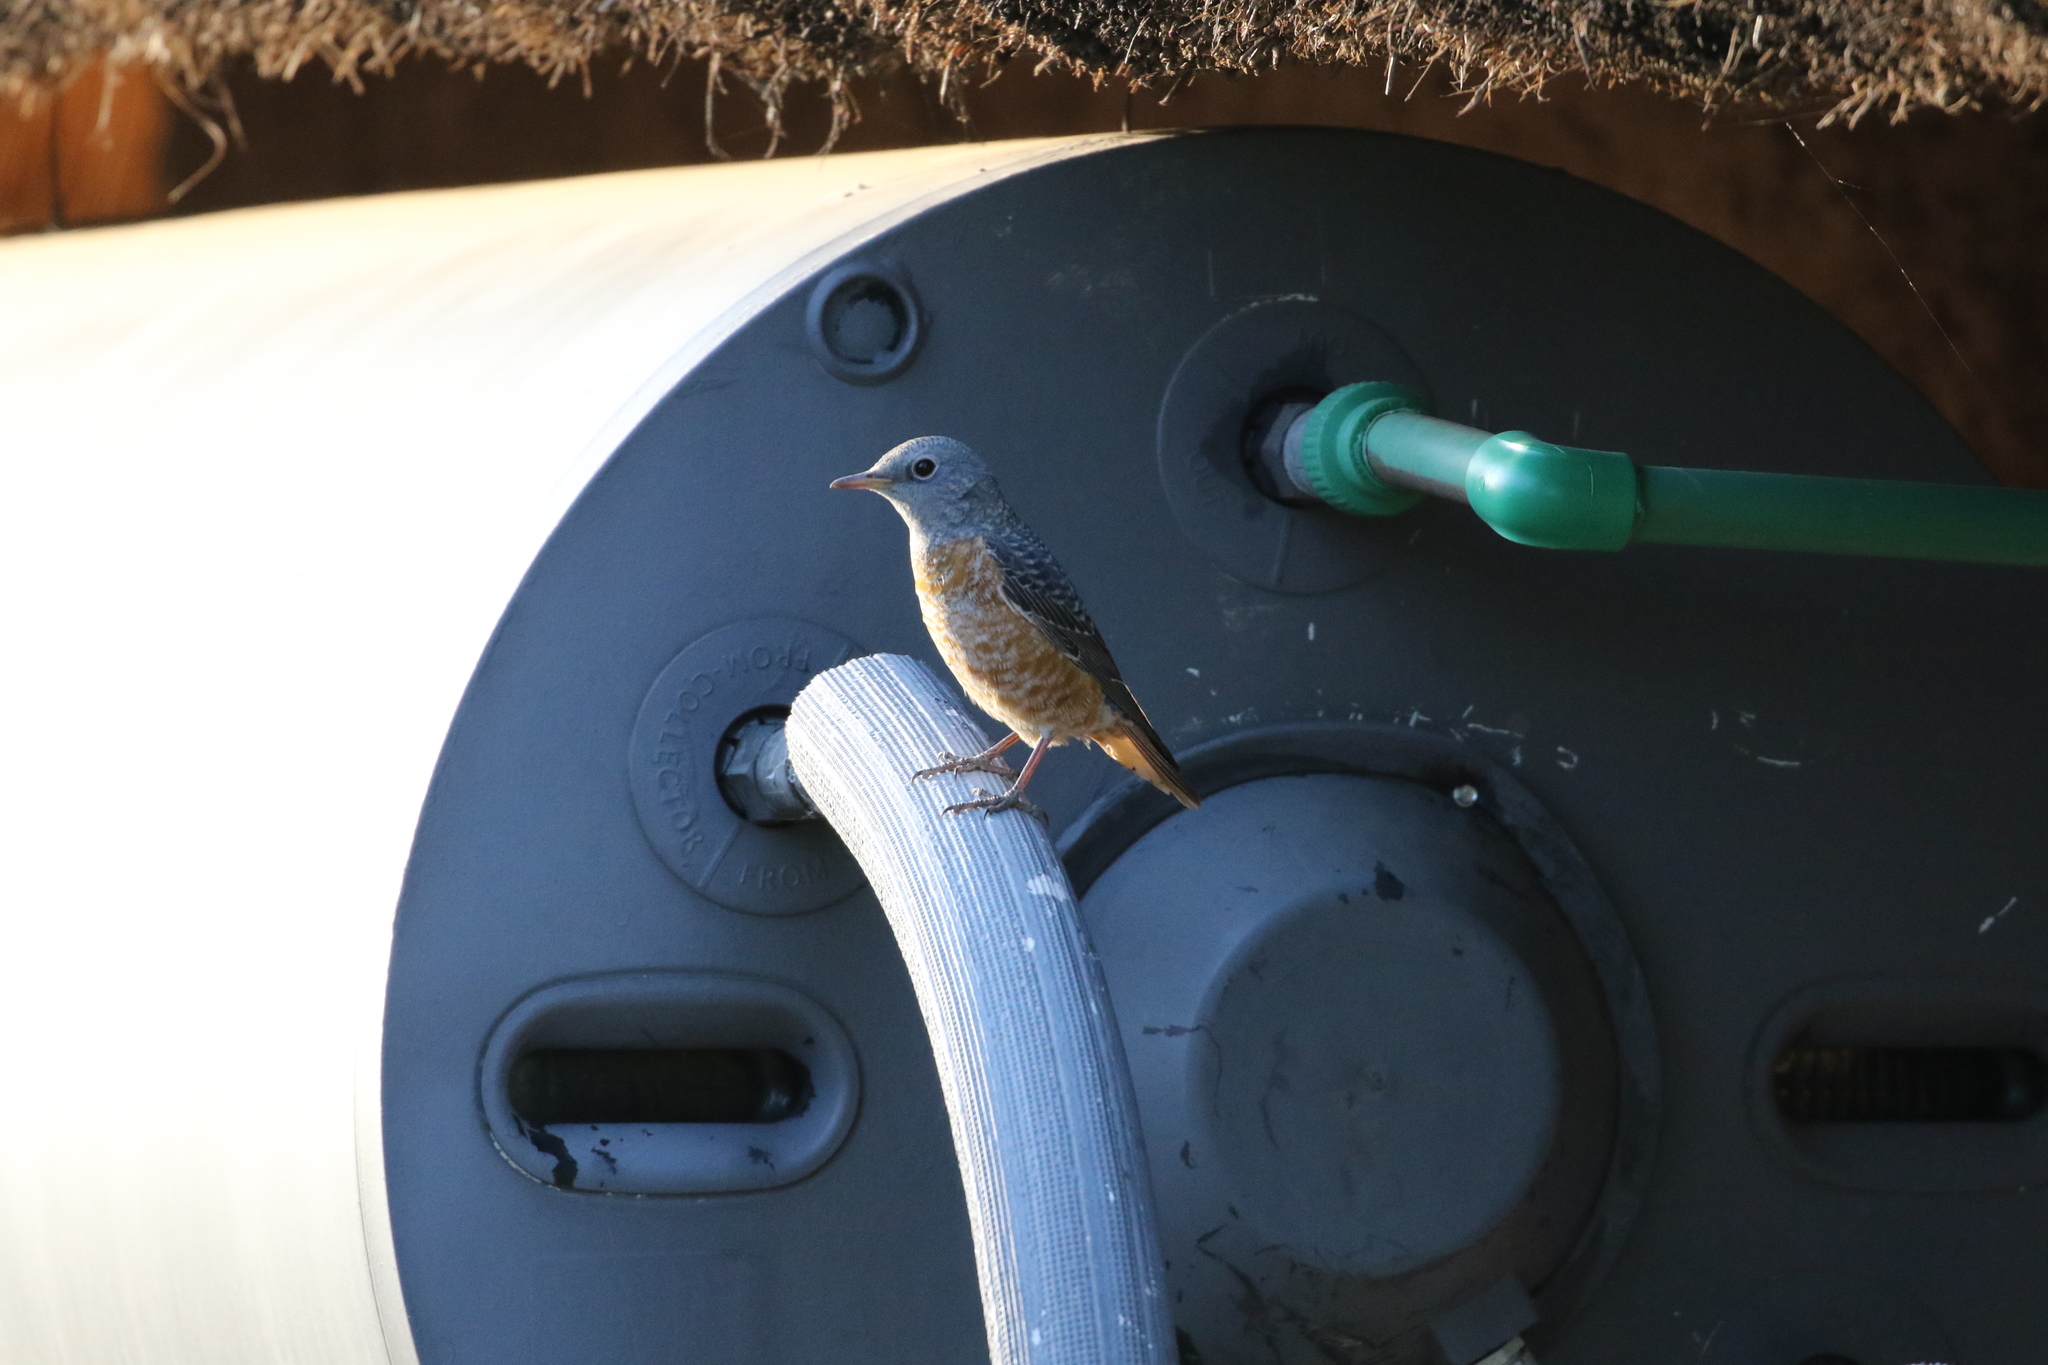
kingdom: Animalia
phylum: Chordata
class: Aves
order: Passeriformes
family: Muscicapidae
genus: Monticola
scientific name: Monticola saxatilis
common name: Rufous-tailed rock thrush
